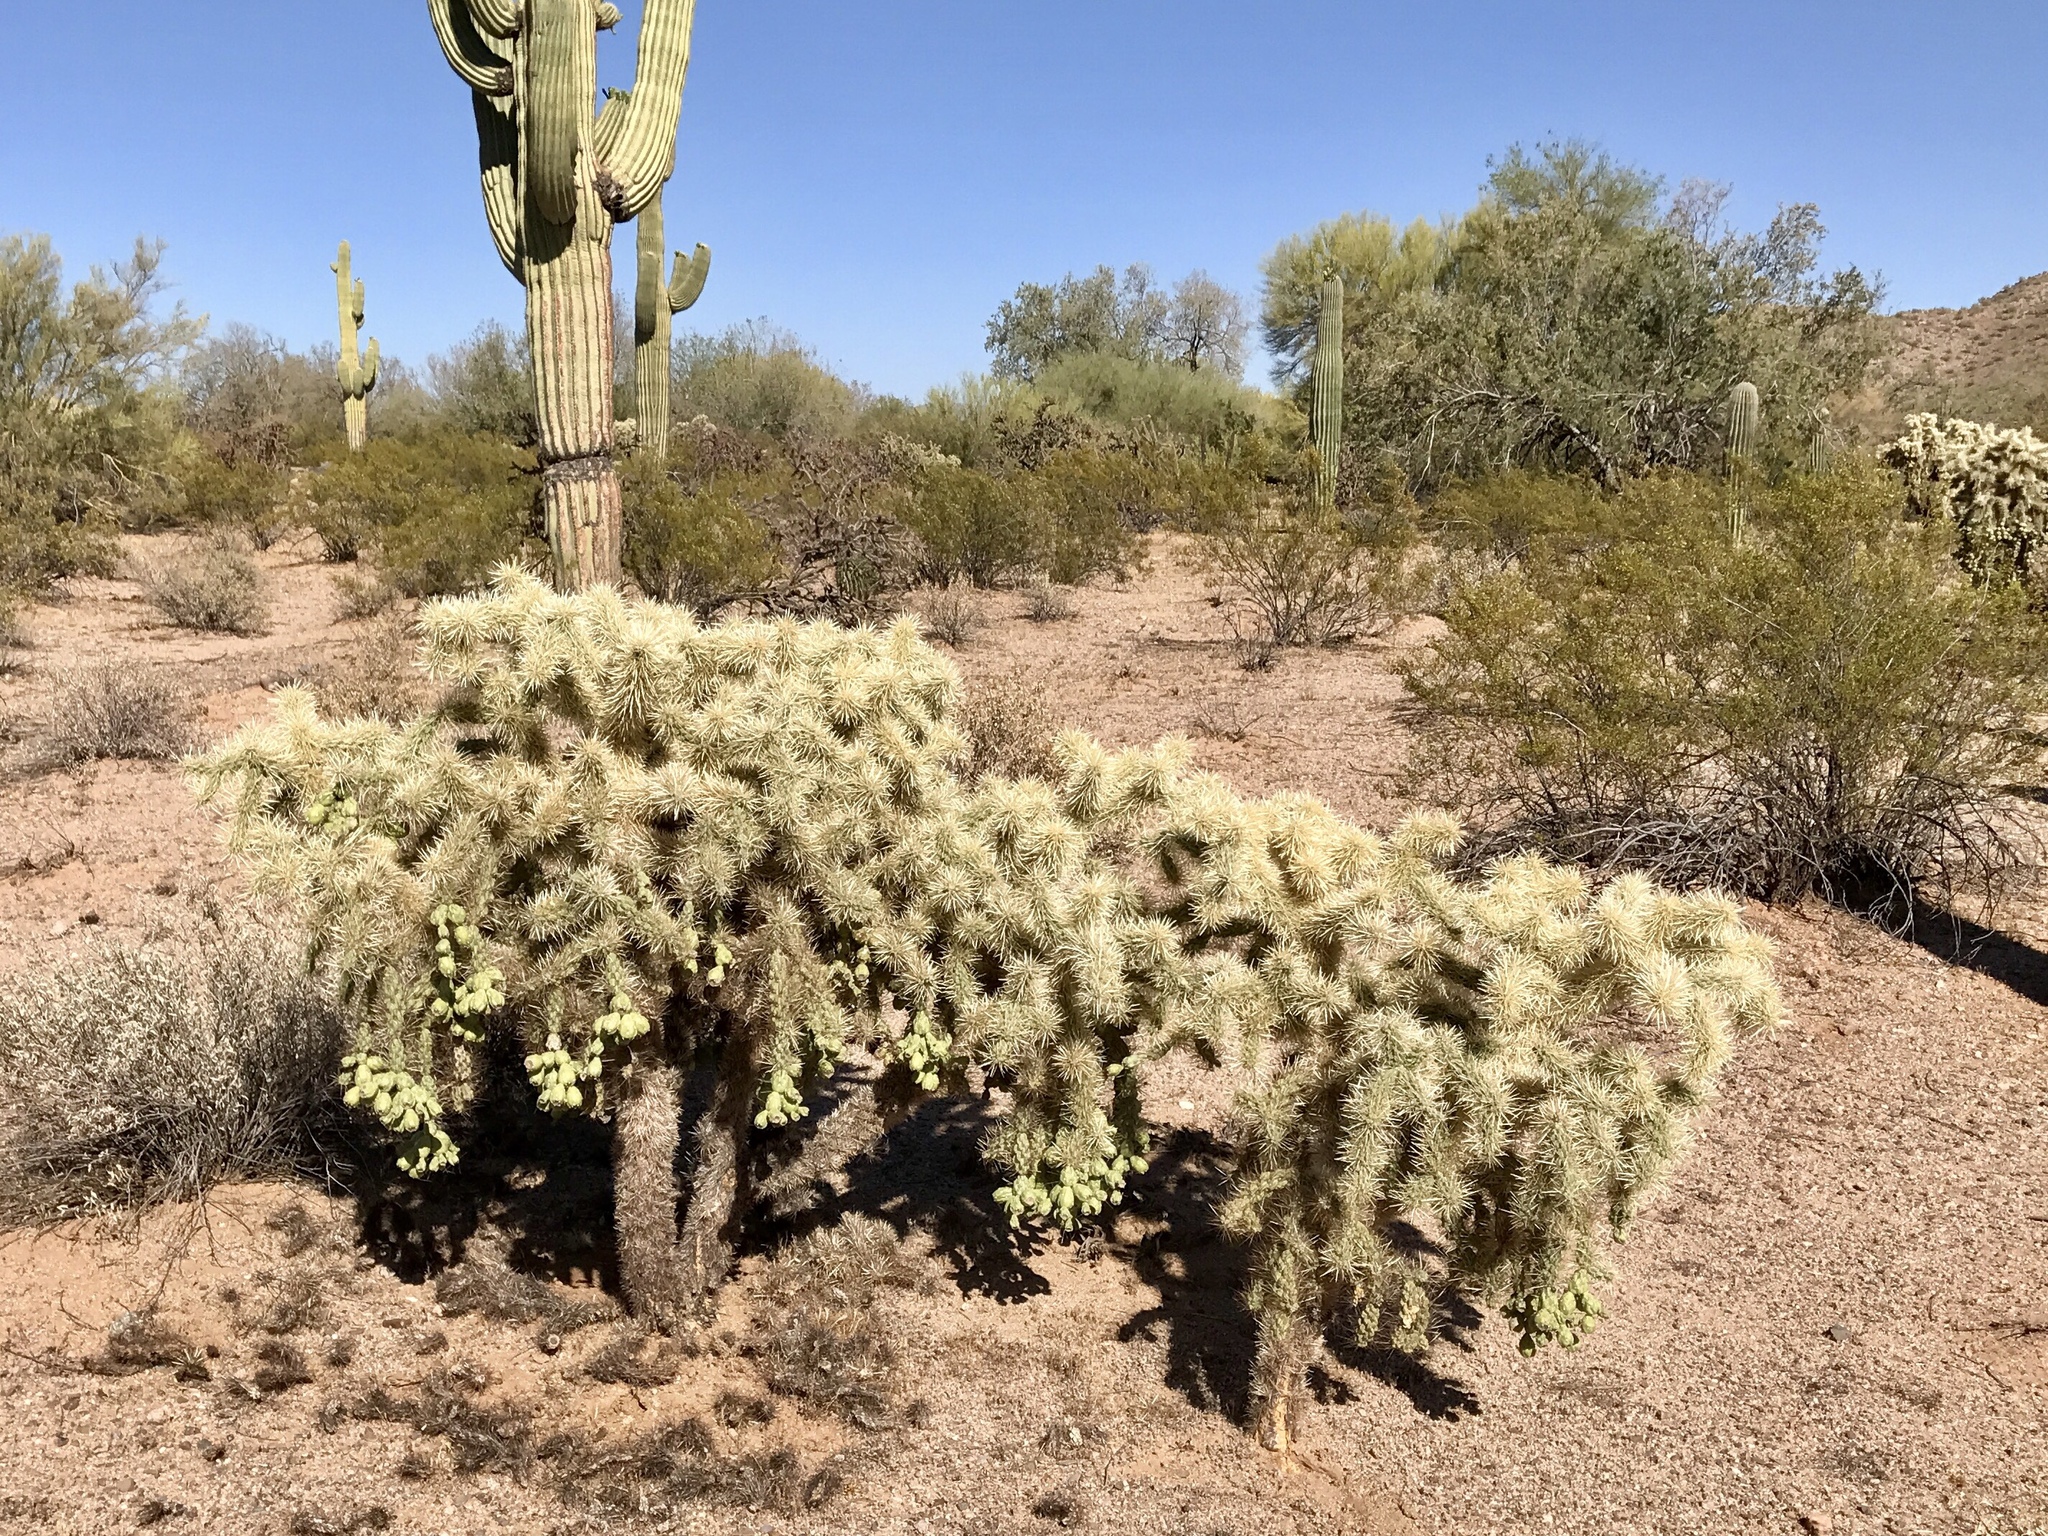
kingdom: Plantae
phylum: Tracheophyta
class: Magnoliopsida
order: Caryophyllales
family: Cactaceae
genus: Cylindropuntia
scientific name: Cylindropuntia fulgida
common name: Jumping cholla
